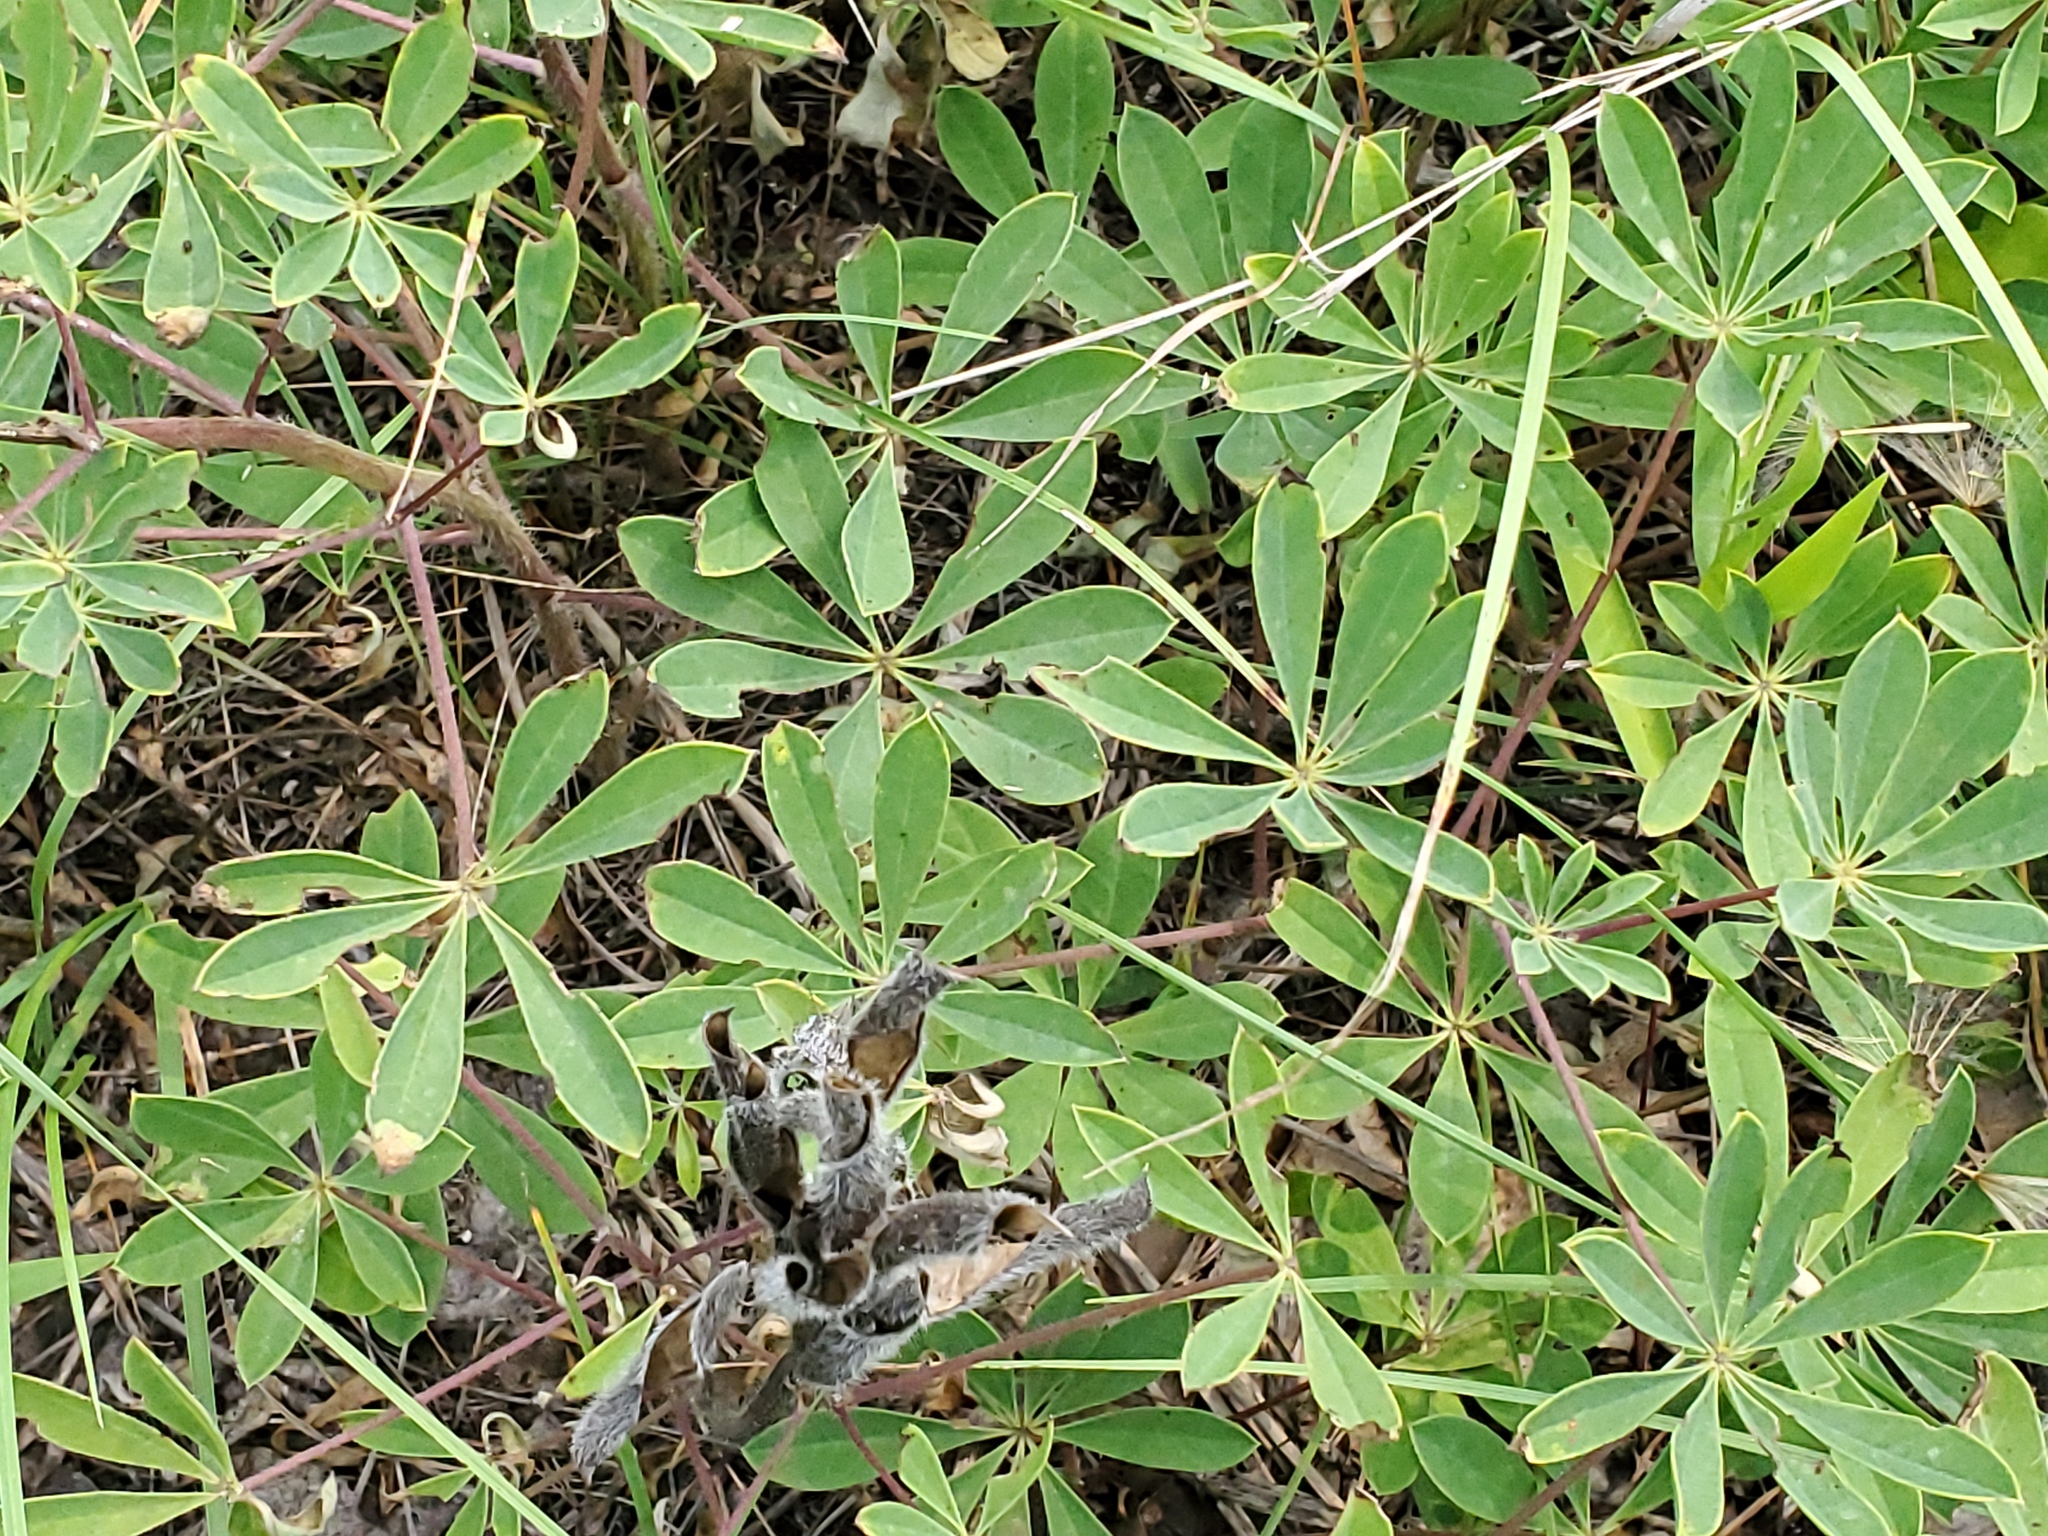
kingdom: Plantae
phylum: Tracheophyta
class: Magnoliopsida
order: Fabales
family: Fabaceae
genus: Lupinus
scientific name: Lupinus perennis
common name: Sundial lupine
